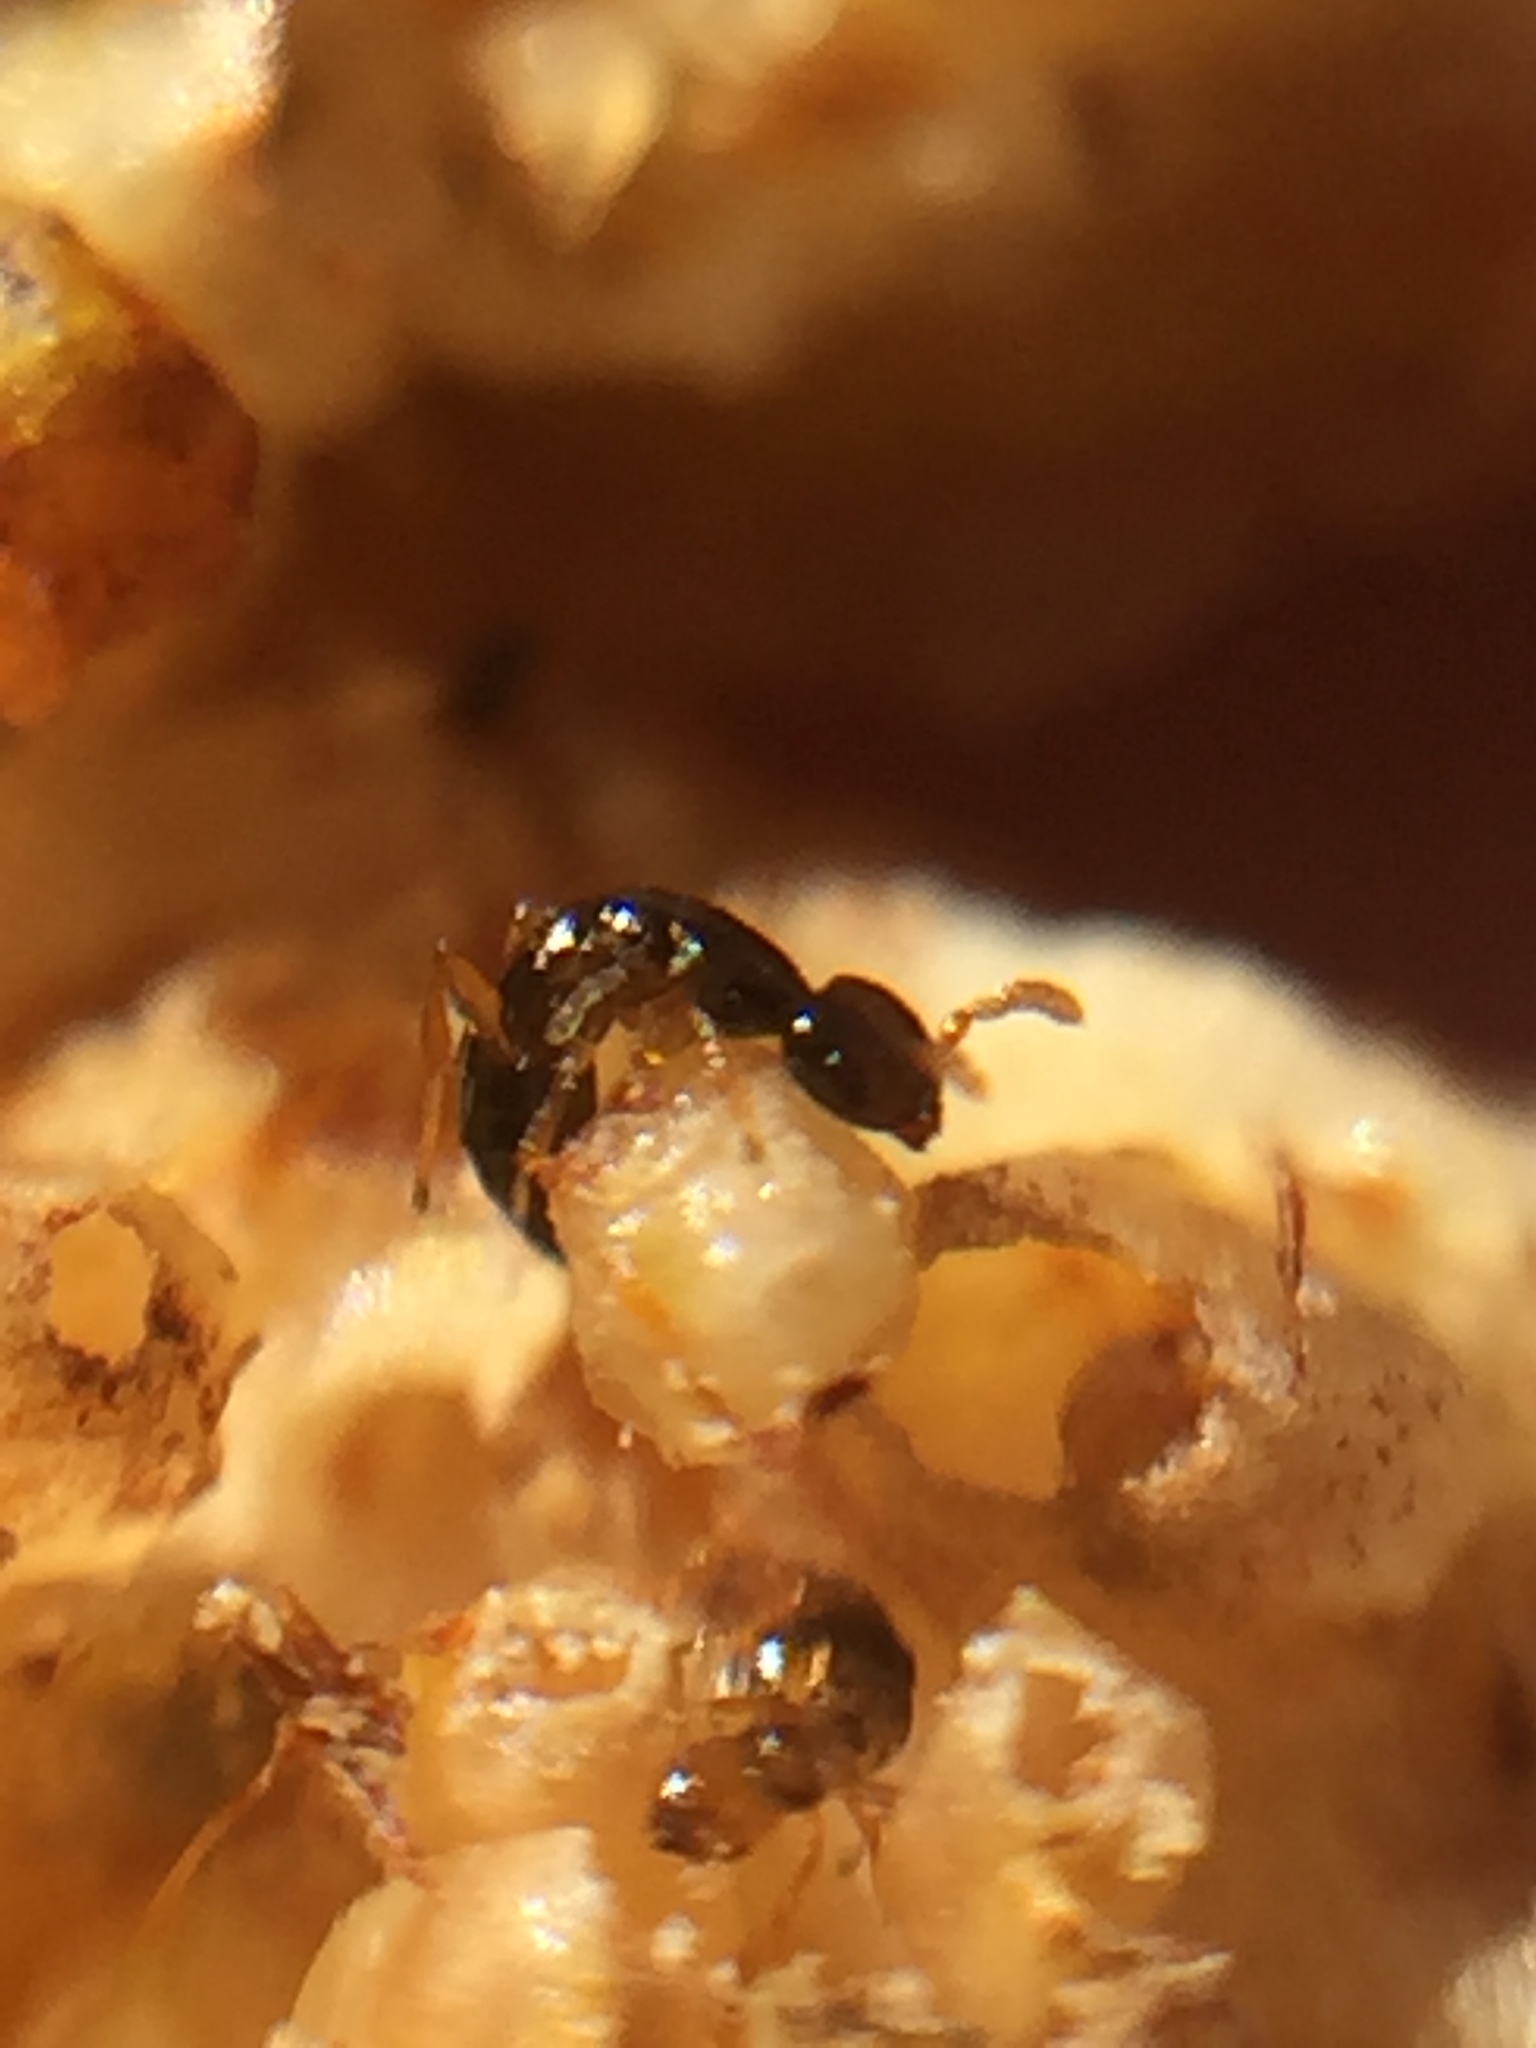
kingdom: Animalia
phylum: Arthropoda
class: Insecta
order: Hymenoptera
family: Agaonidae
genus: Pseudidarnes
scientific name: Pseudidarnes minerva
